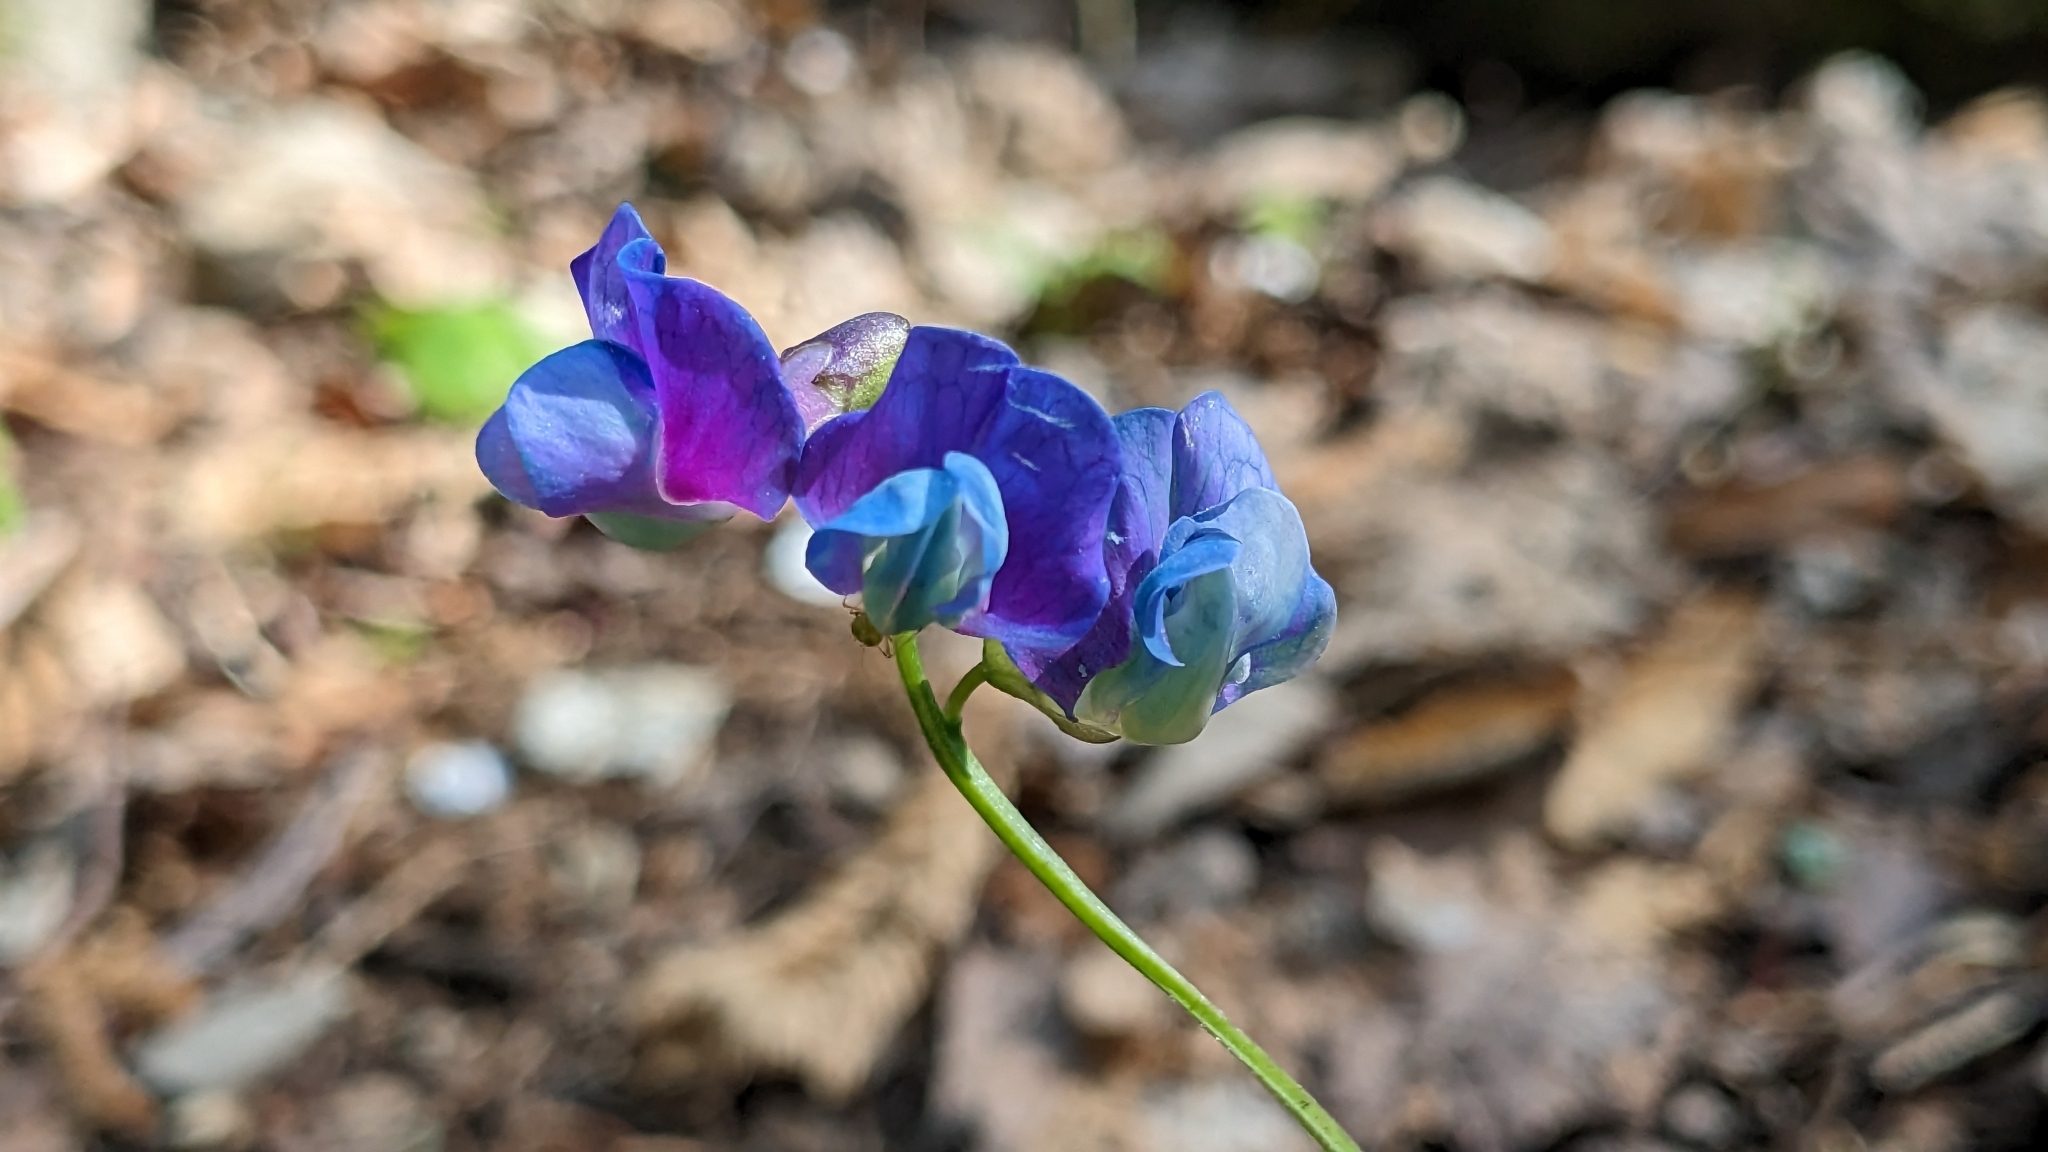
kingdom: Plantae
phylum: Tracheophyta
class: Magnoliopsida
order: Fabales
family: Fabaceae
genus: Lathyrus
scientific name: Lathyrus vernus
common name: Spring pea
